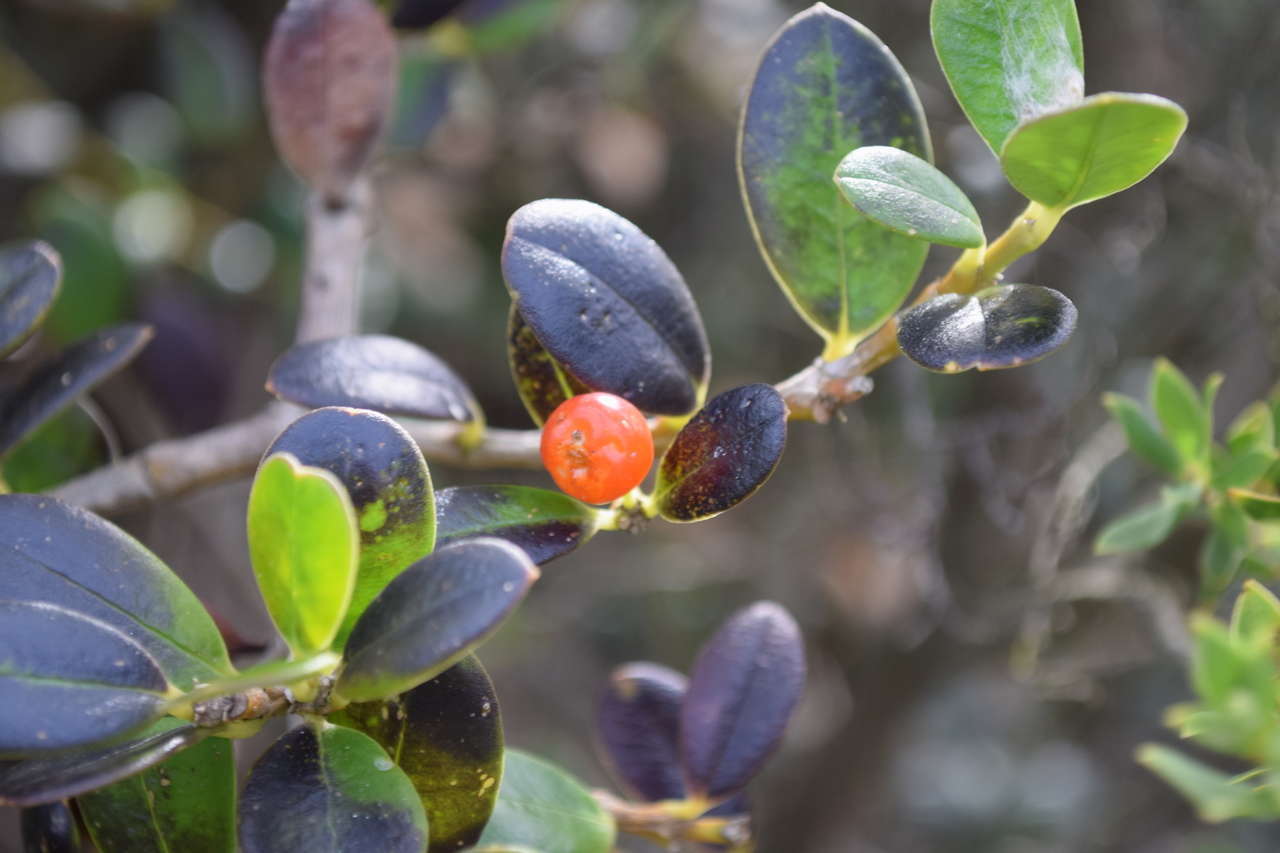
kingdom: Plantae
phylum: Tracheophyta
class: Magnoliopsida
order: Gentianales
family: Apocynaceae
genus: Alyxia
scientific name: Alyxia buxifolia
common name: Dysentery-bush
